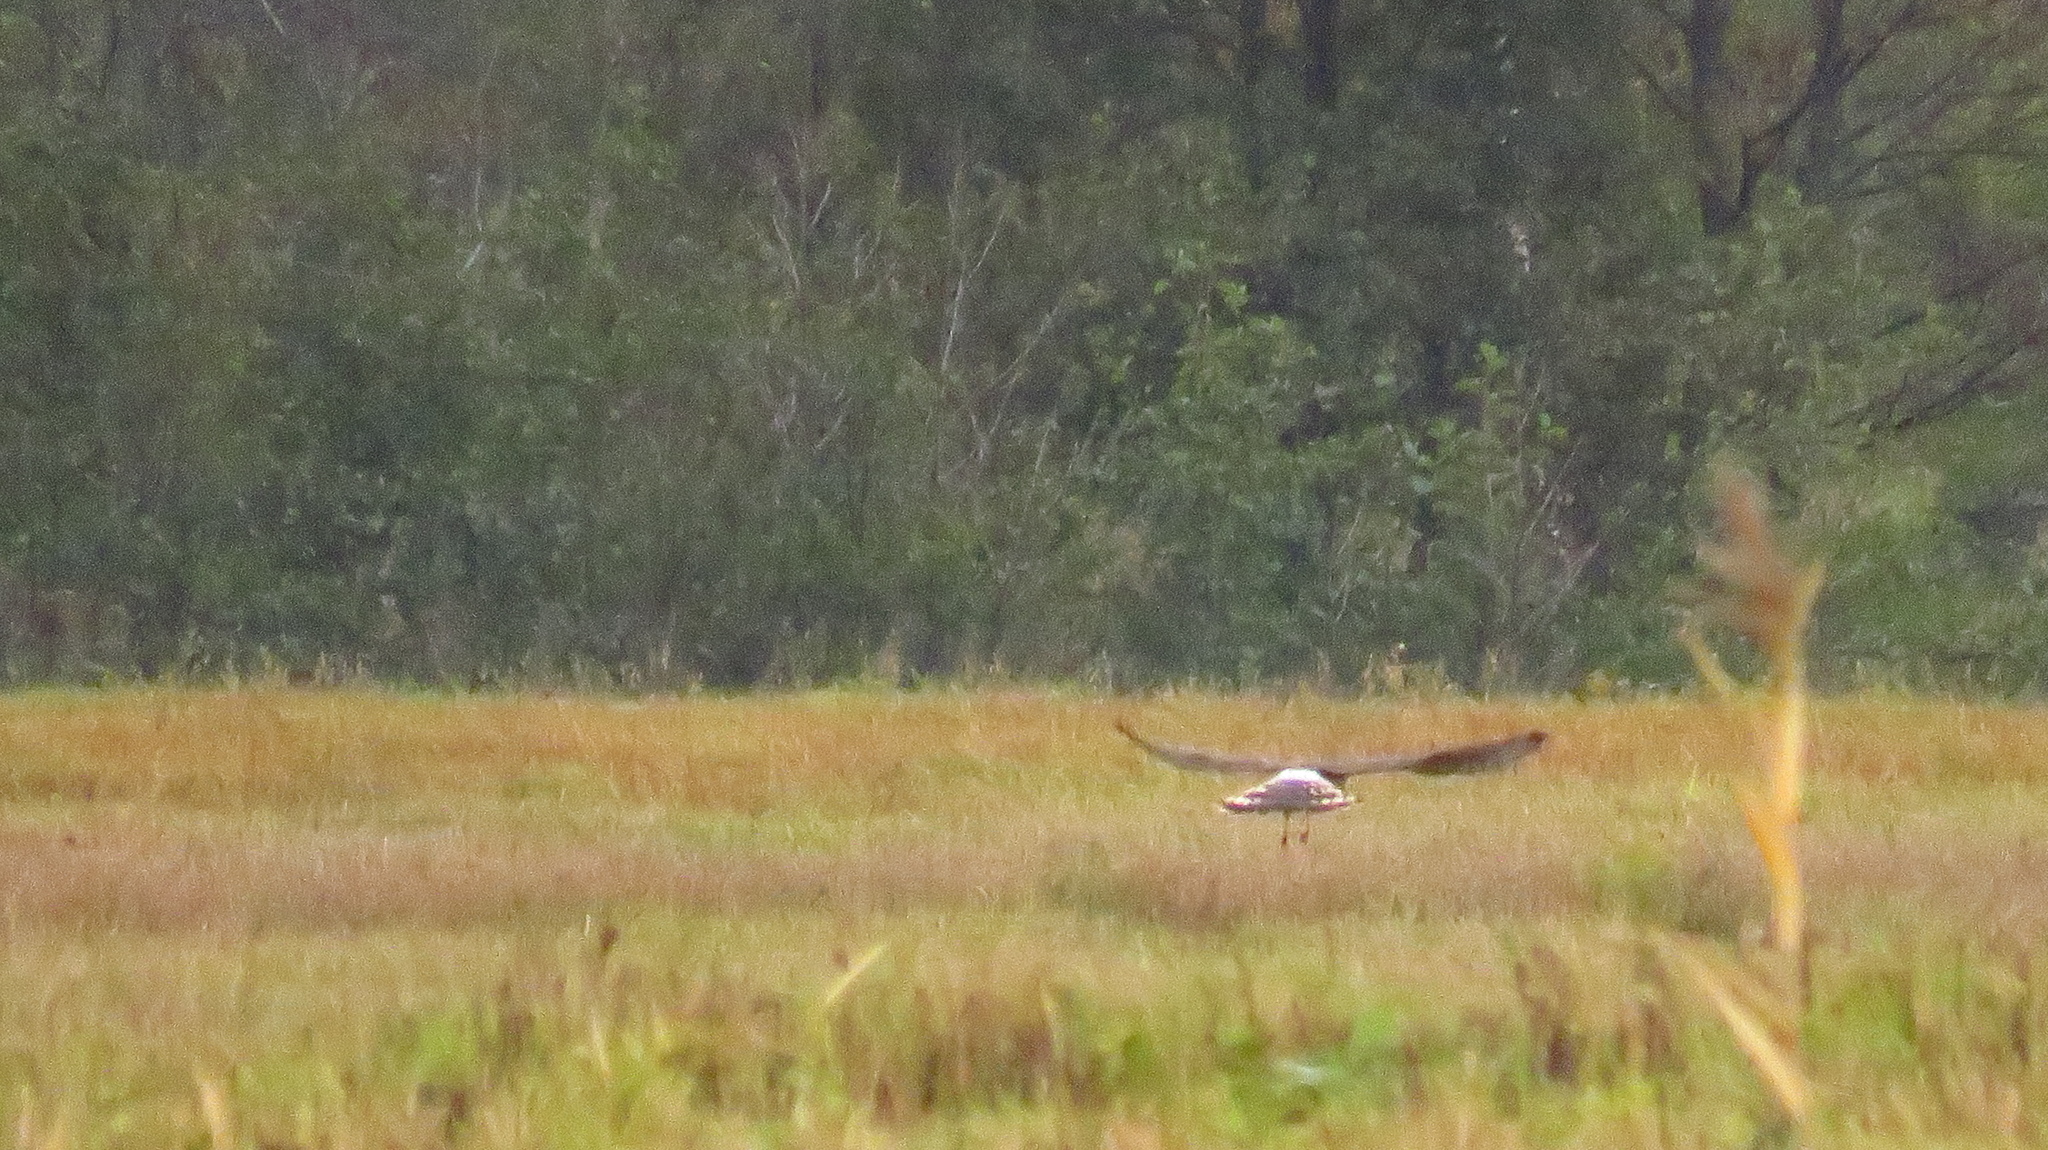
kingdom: Animalia
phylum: Chordata
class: Aves
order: Accipitriformes
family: Accipitridae
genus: Circus
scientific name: Circus cyaneus
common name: Hen harrier
